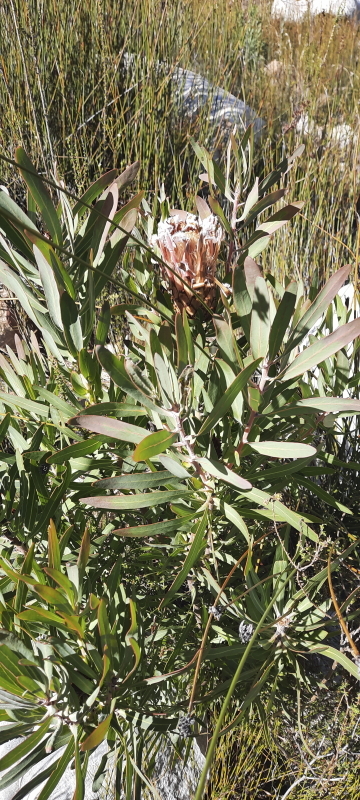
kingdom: Plantae
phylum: Tracheophyta
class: Magnoliopsida
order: Proteales
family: Proteaceae
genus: Protea
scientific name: Protea neriifolia
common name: Blue sugarbush
